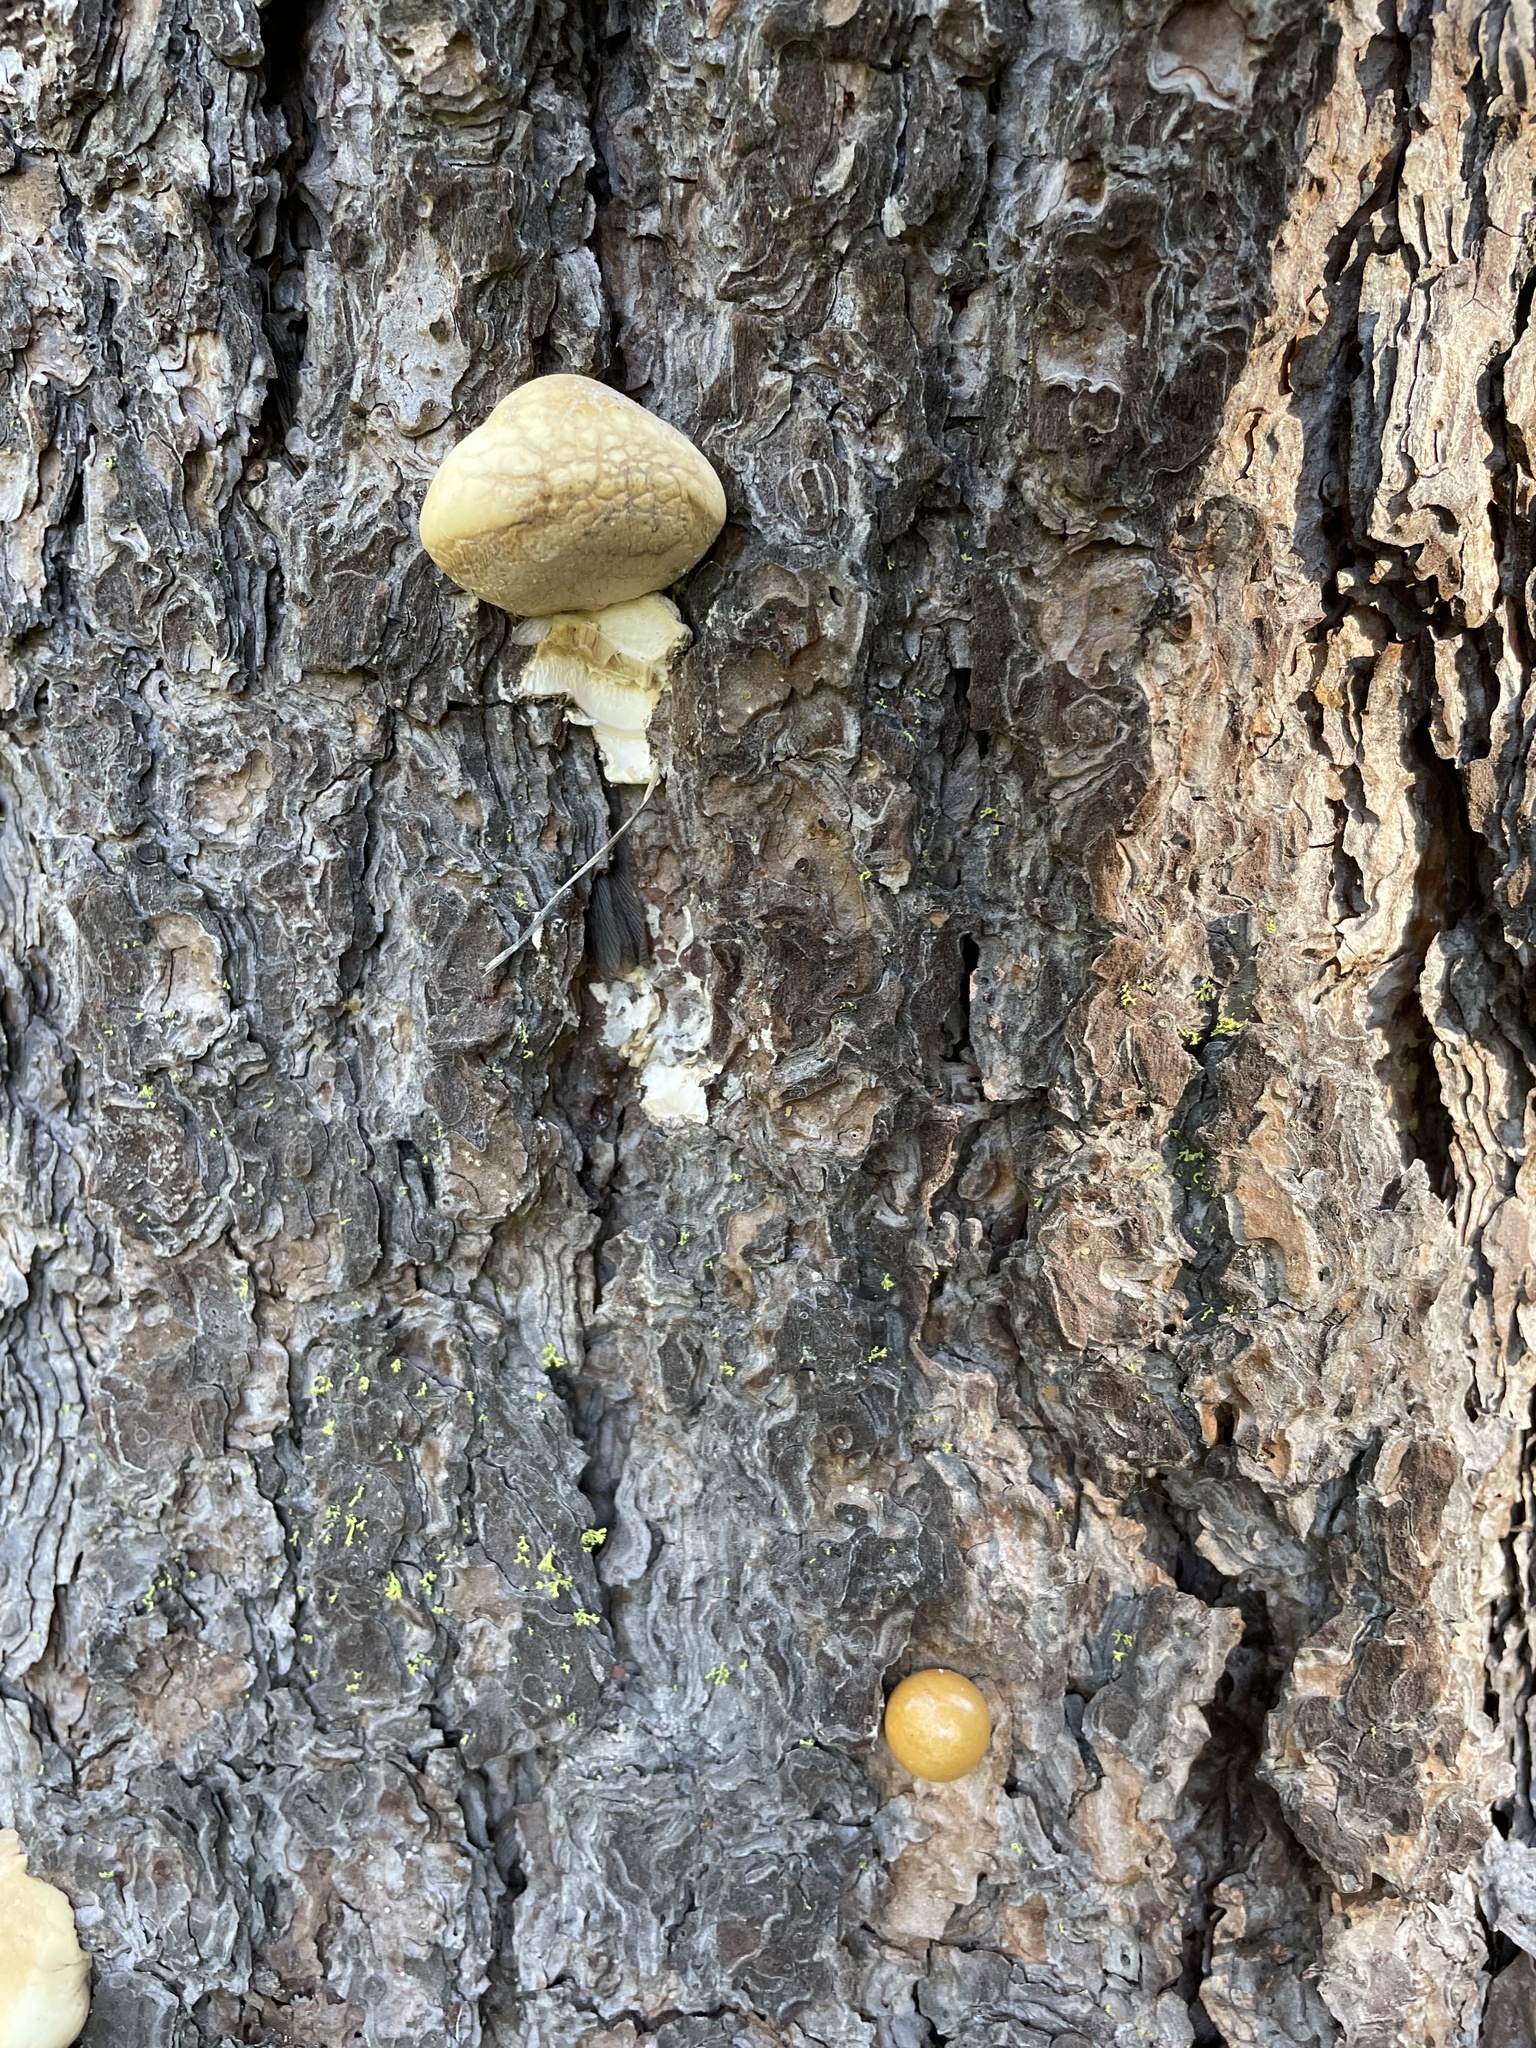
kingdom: Fungi
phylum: Basidiomycota
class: Agaricomycetes
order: Polyporales
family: Polyporaceae
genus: Cryptoporus
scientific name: Cryptoporus volvatus
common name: Veiled polypore
